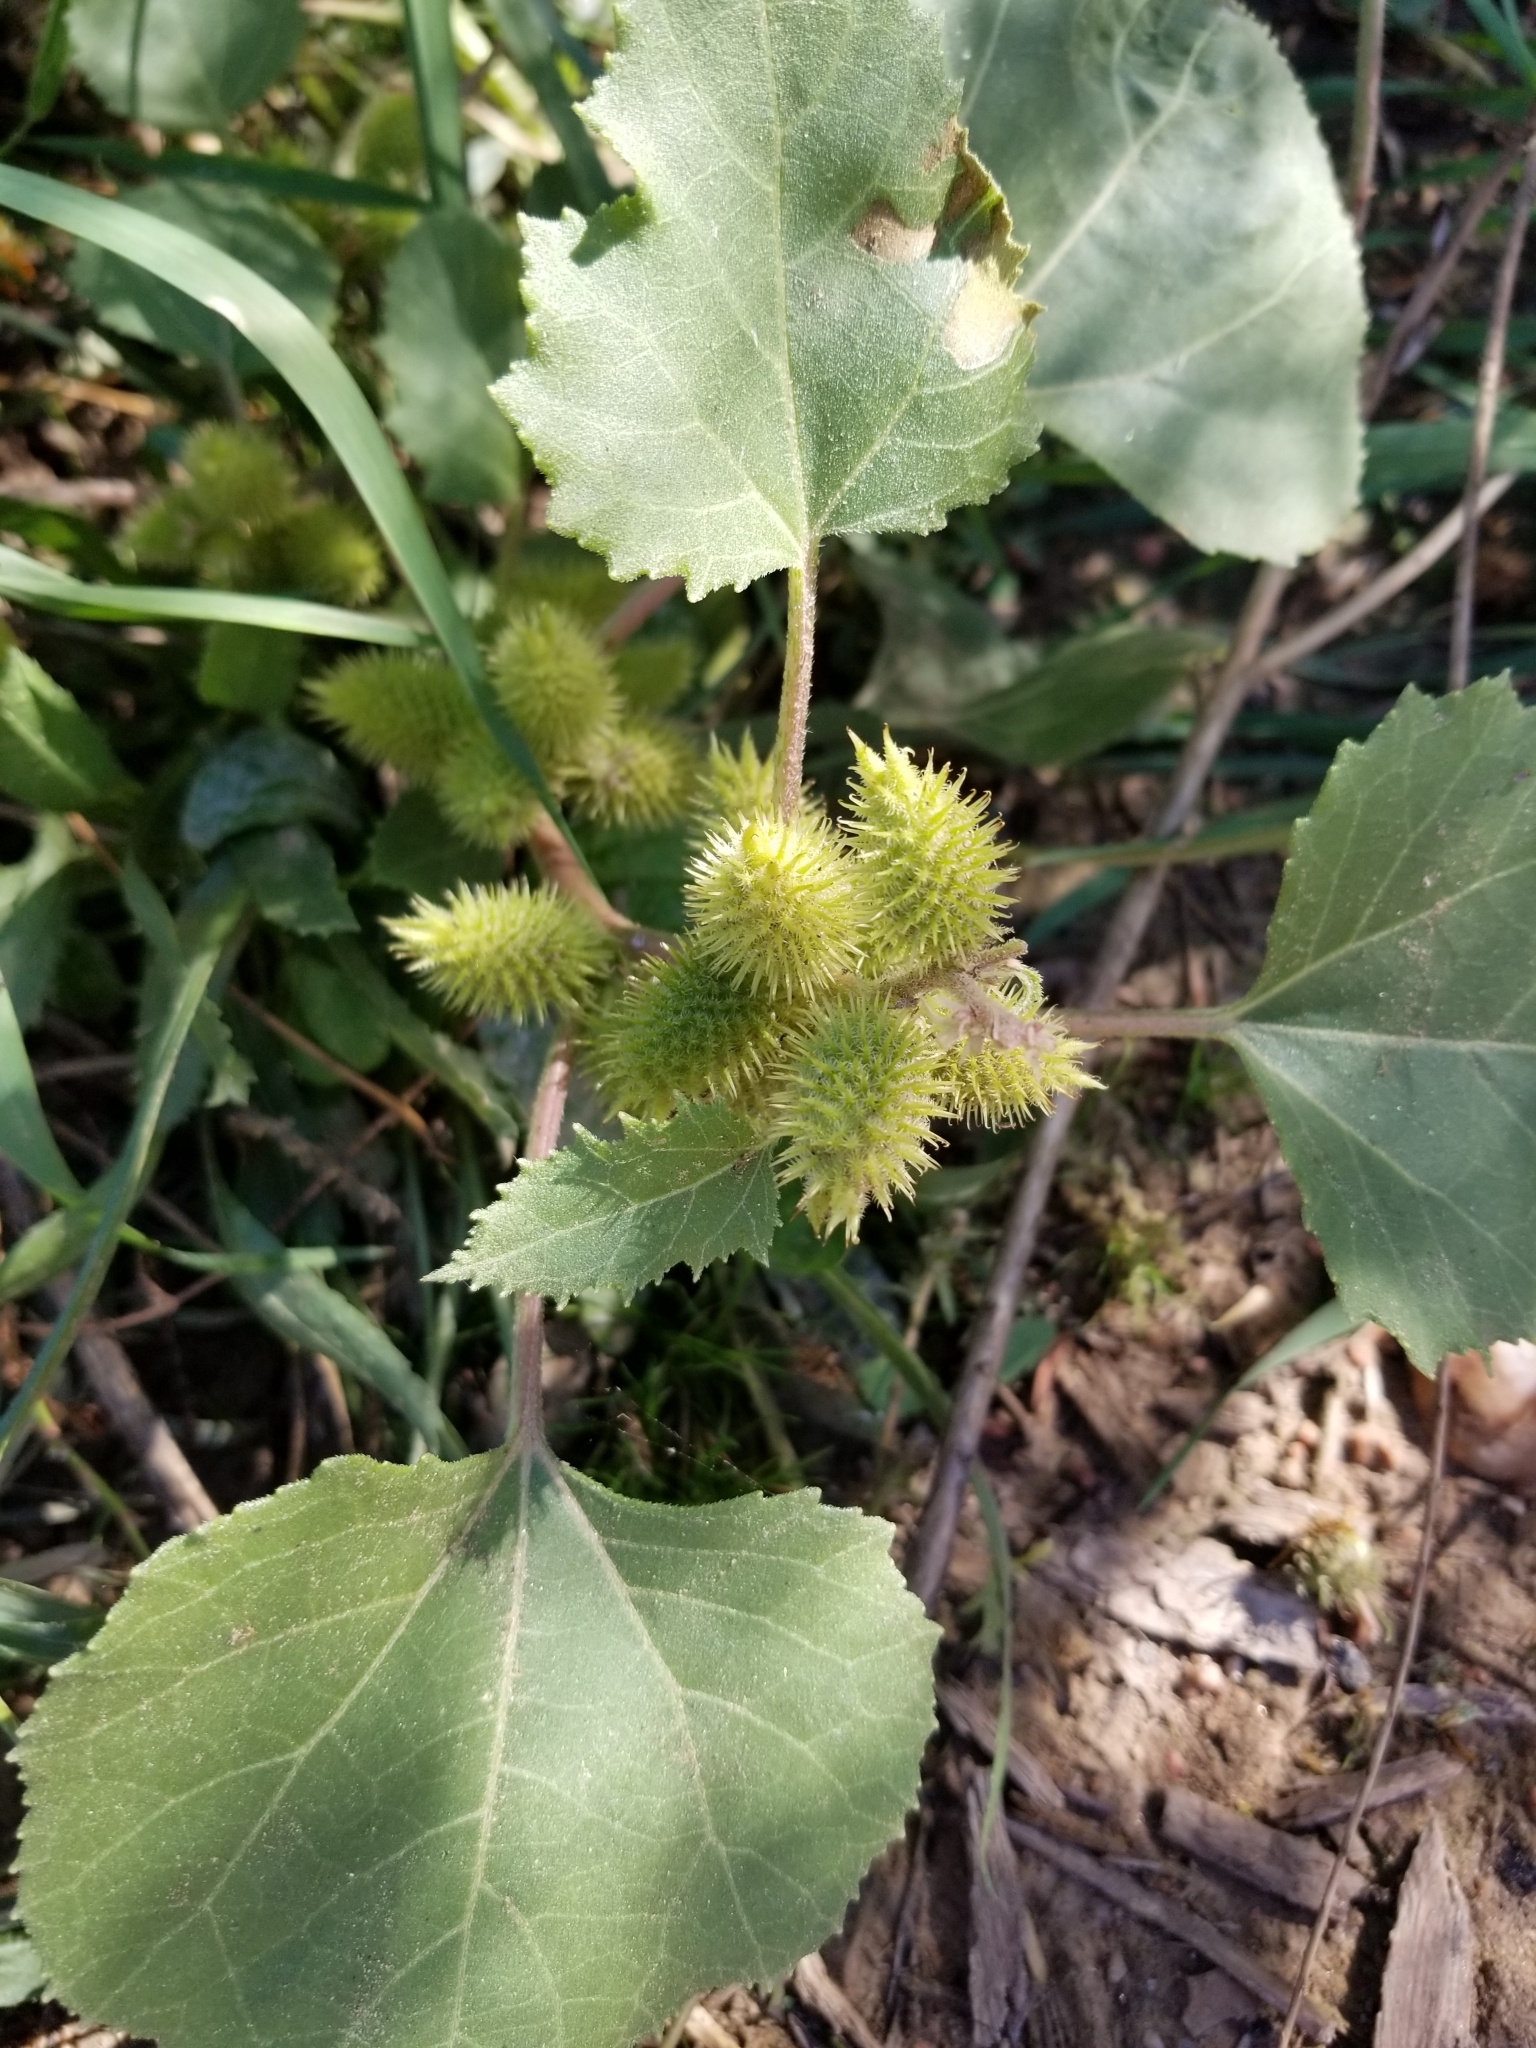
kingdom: Plantae
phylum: Tracheophyta
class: Magnoliopsida
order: Asterales
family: Asteraceae
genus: Xanthium
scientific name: Xanthium strumarium
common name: Rough cocklebur
